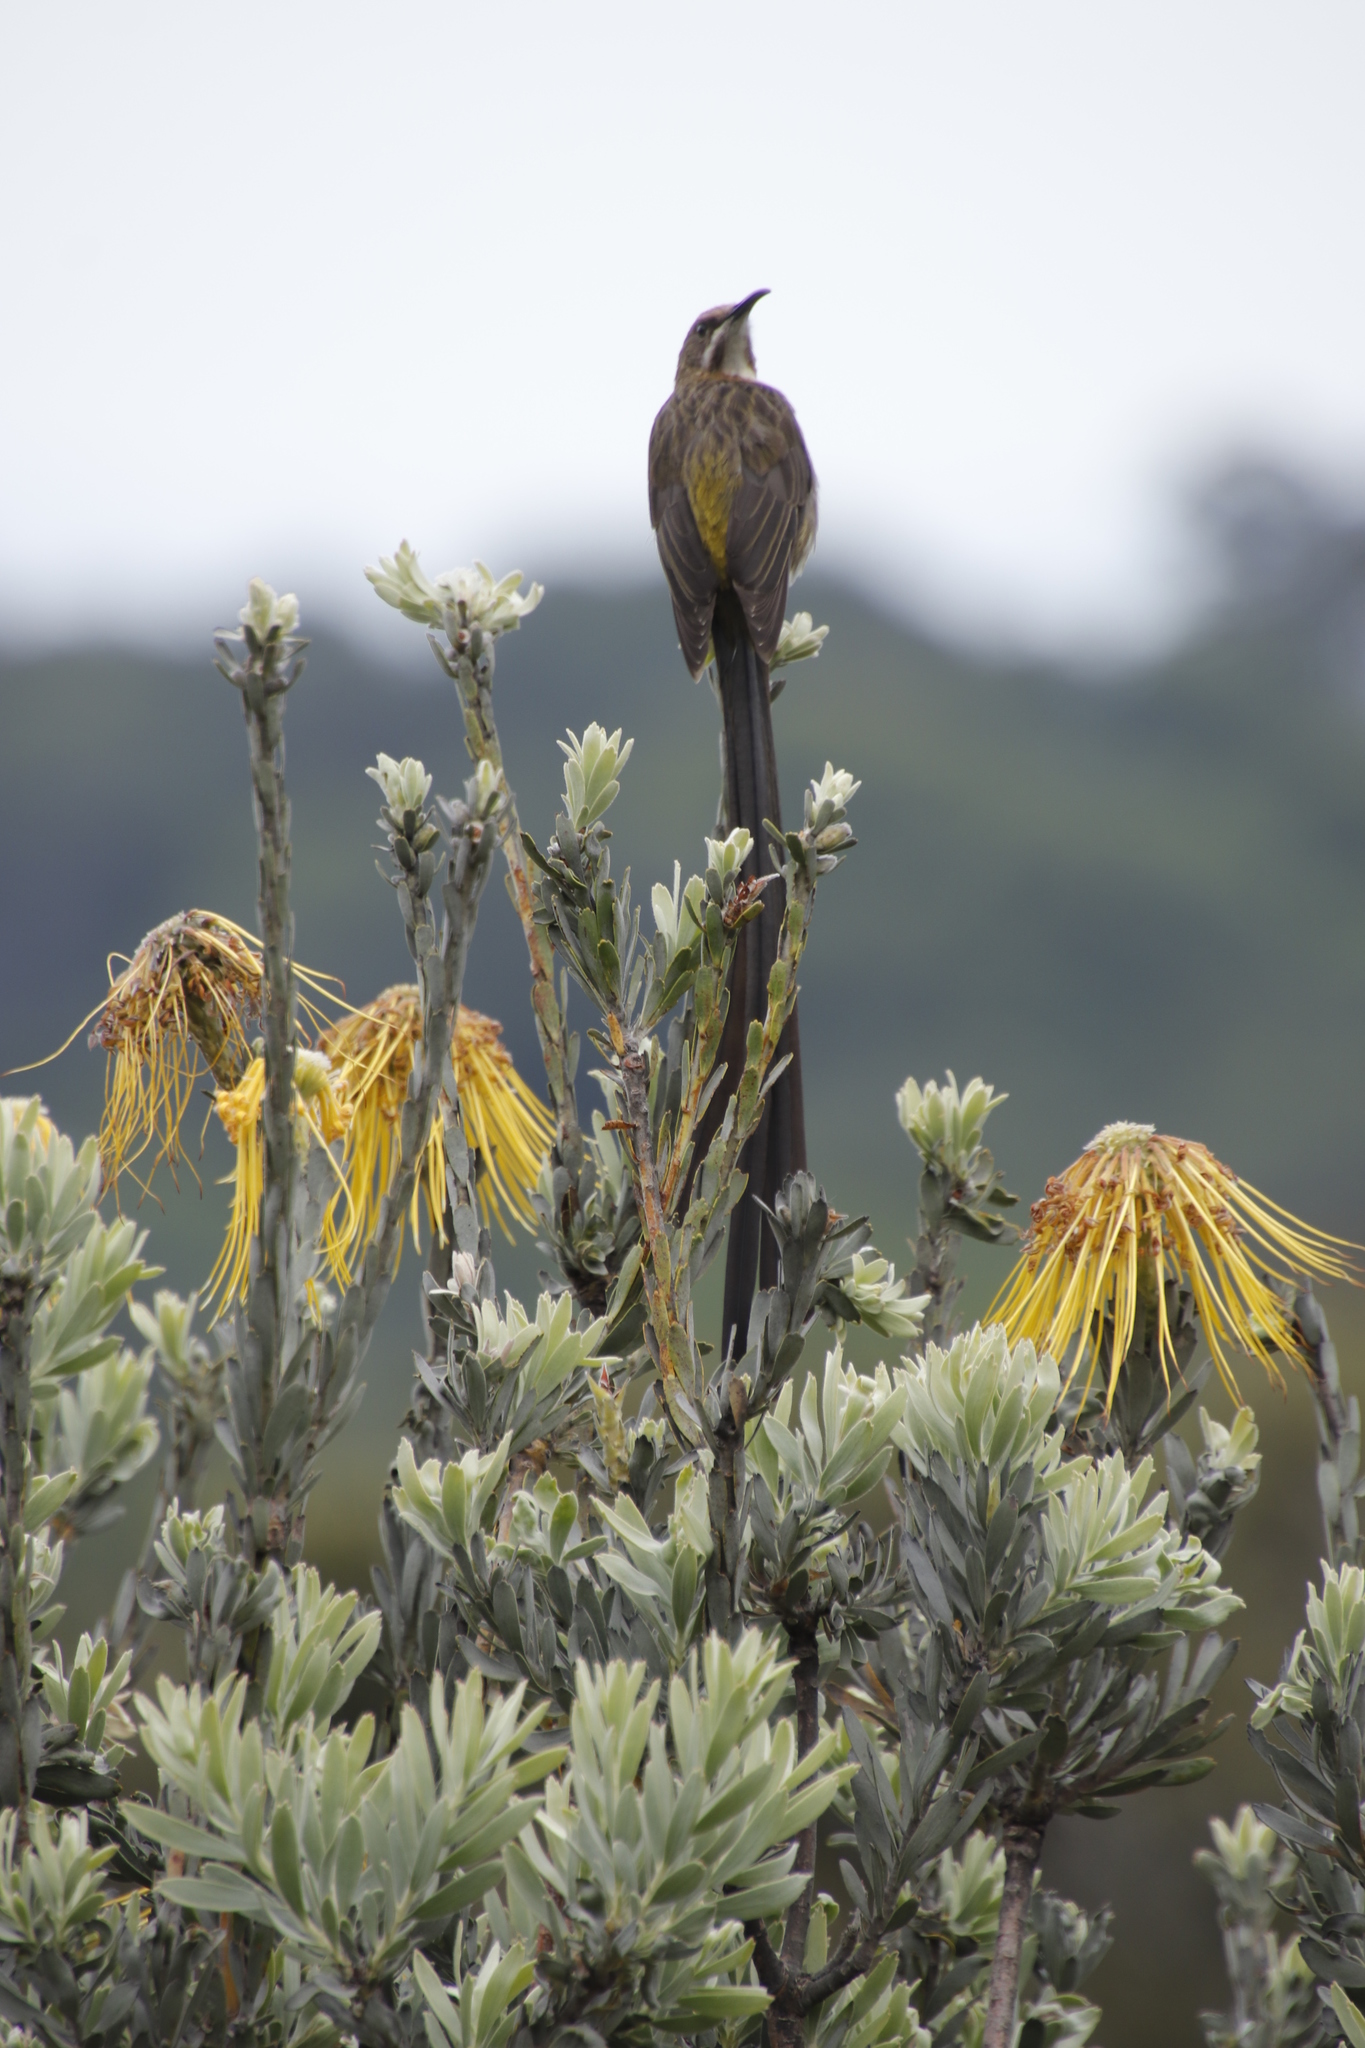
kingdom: Animalia
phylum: Chordata
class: Aves
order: Passeriformes
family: Promeropidae
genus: Promerops
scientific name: Promerops cafer
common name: Cape sugarbird
